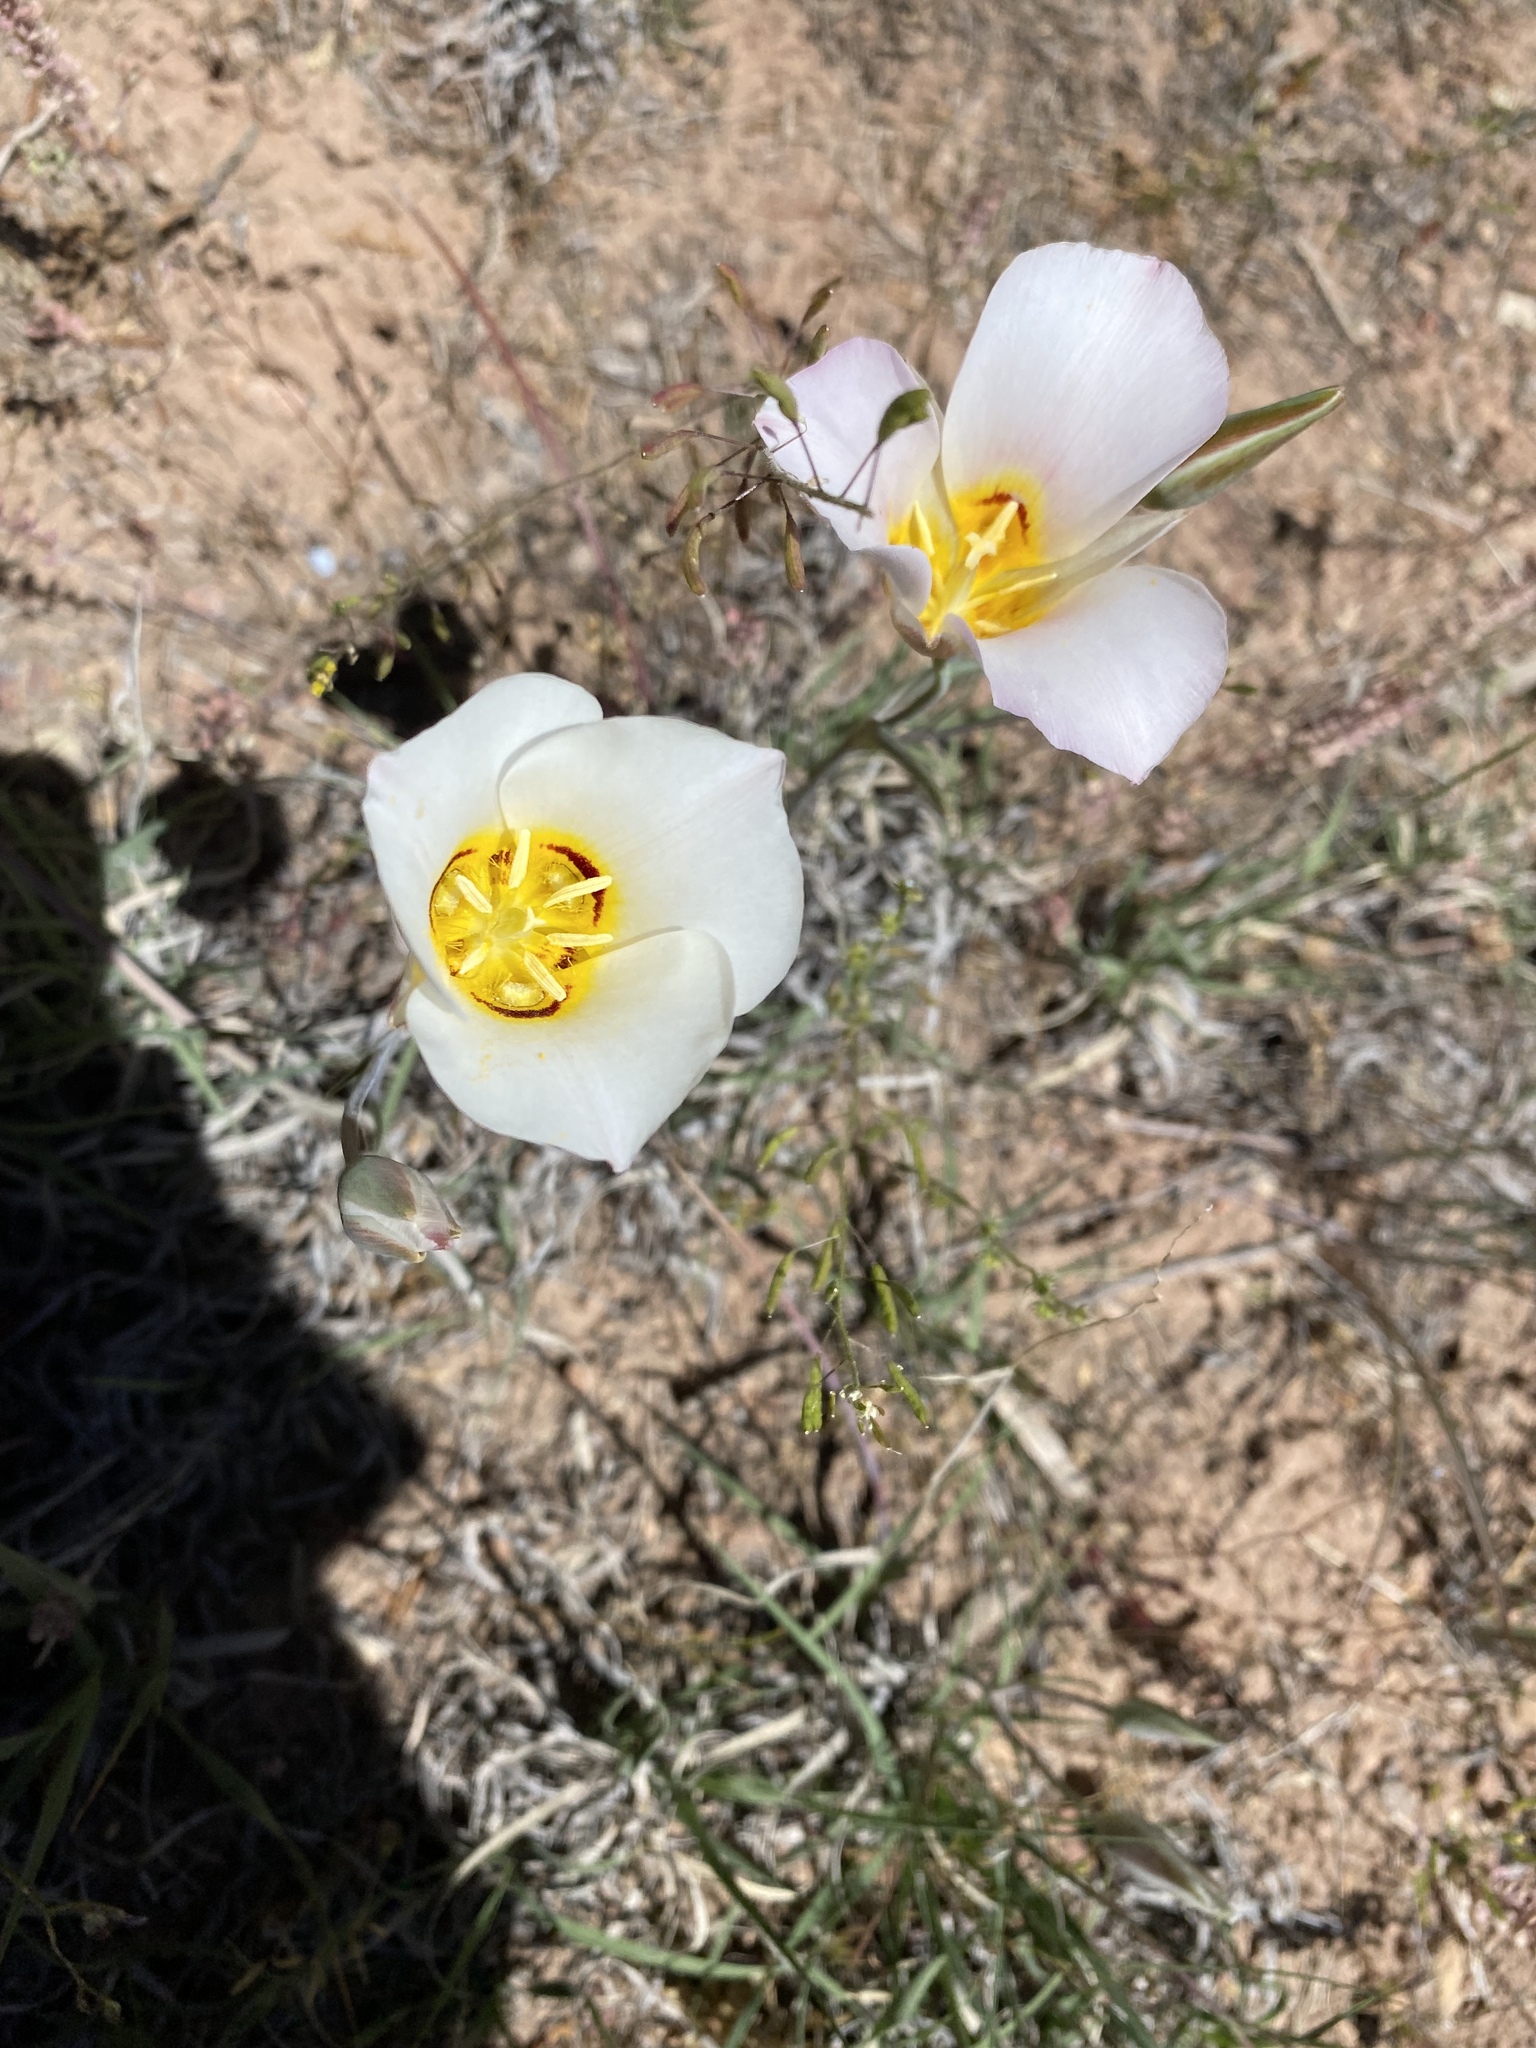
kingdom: Plantae
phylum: Tracheophyta
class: Liliopsida
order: Liliales
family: Liliaceae
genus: Calochortus
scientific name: Calochortus nuttallii
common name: Sego-lily
